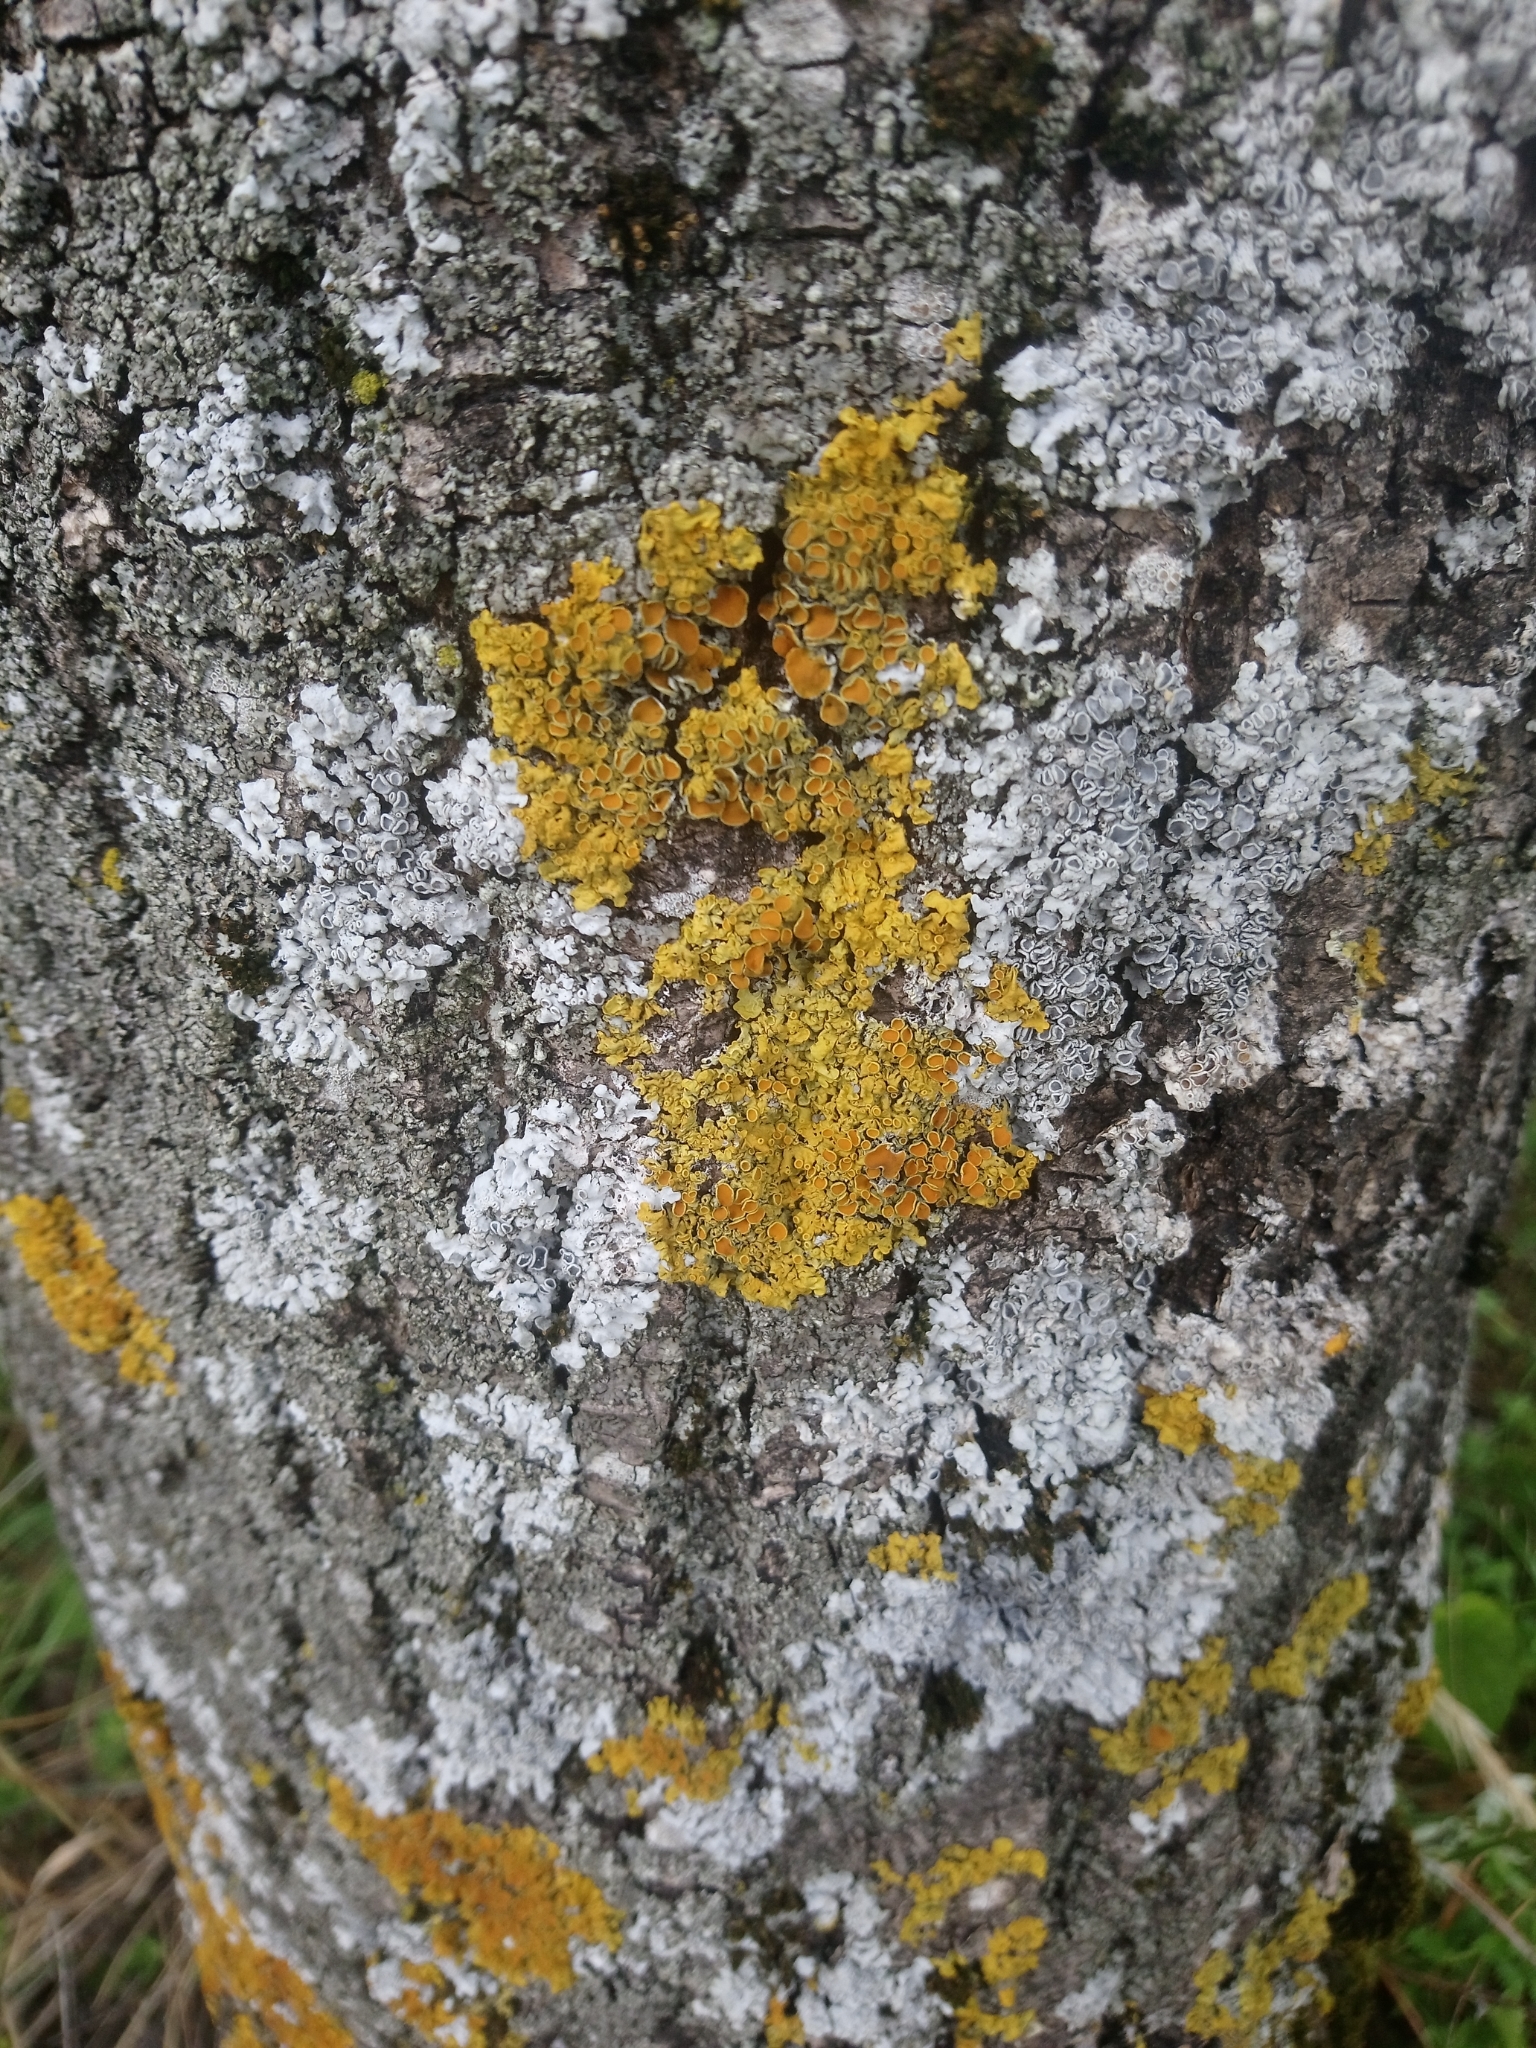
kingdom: Fungi
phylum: Ascomycota
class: Lecanoromycetes
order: Teloschistales
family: Teloschistaceae
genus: Xanthoria
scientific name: Xanthoria parietina
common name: Common orange lichen
